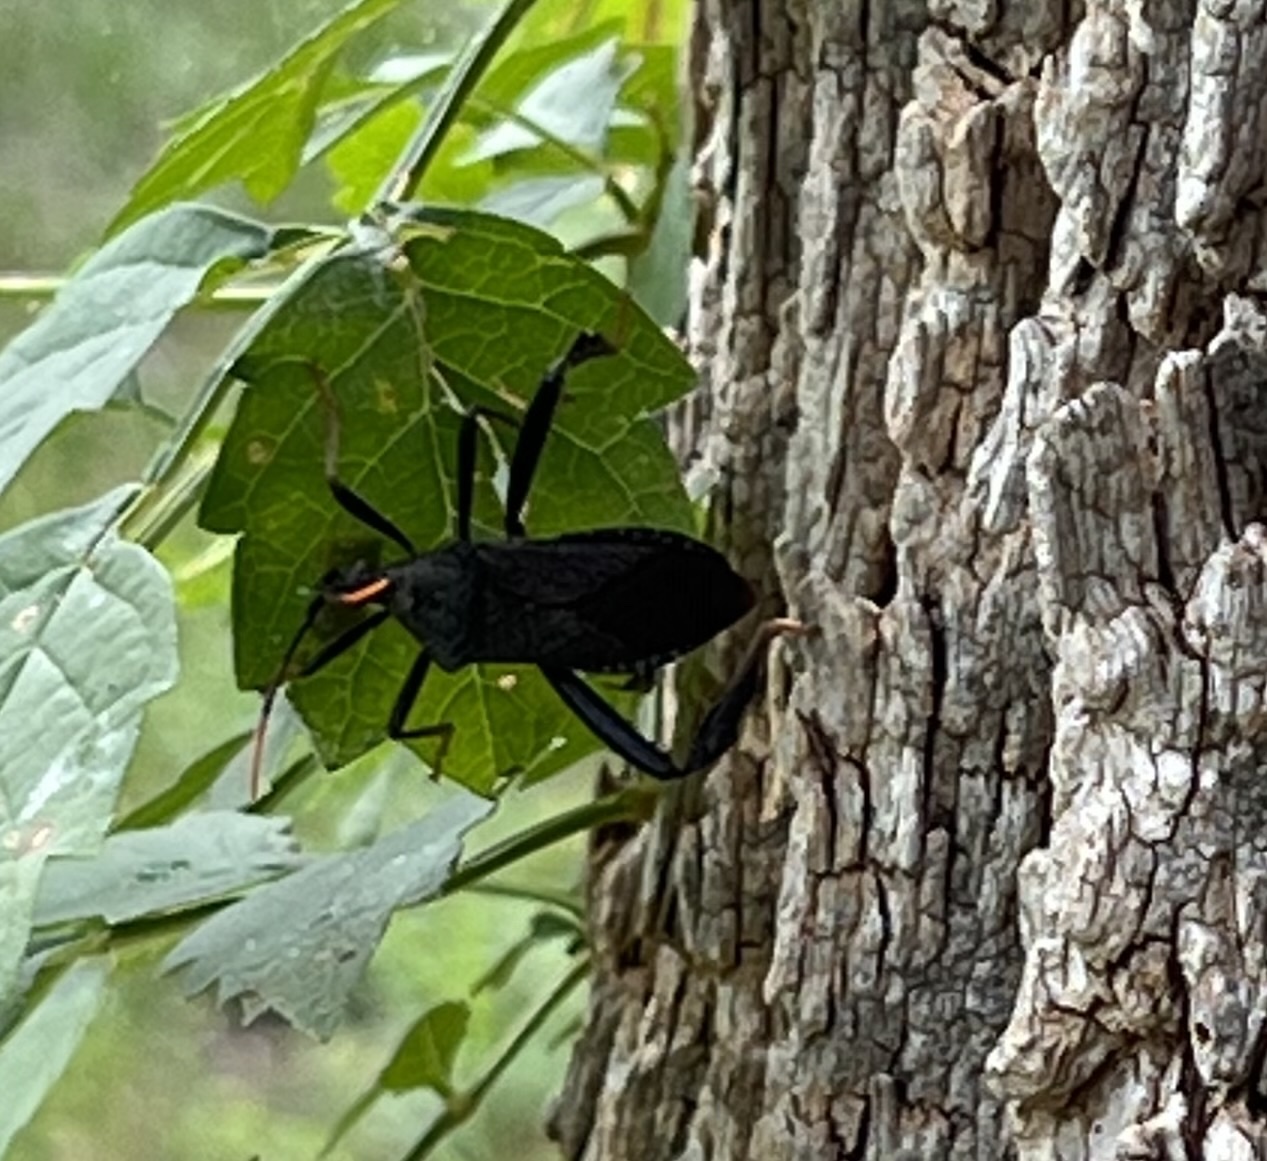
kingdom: Animalia
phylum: Arthropoda
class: Insecta
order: Hemiptera
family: Coreidae
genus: Acanthocephala
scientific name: Acanthocephala terminalis
